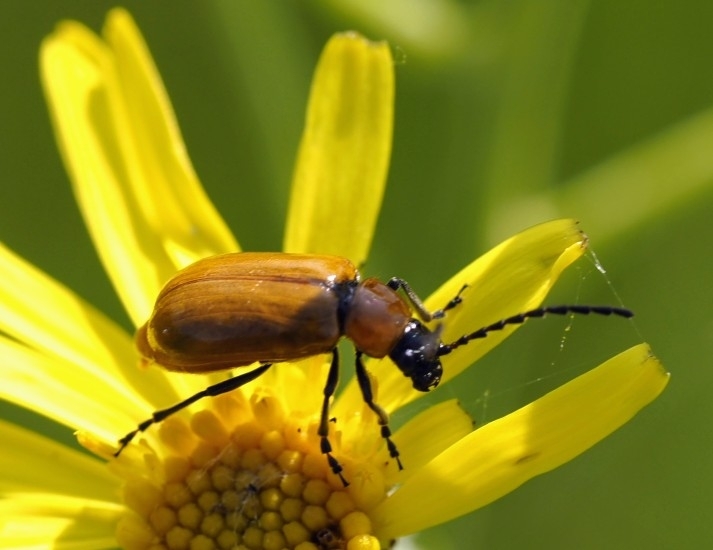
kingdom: Animalia
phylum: Arthropoda
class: Insecta
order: Coleoptera
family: Chrysomelidae
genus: Exosoma
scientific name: Exosoma lusitanicum
